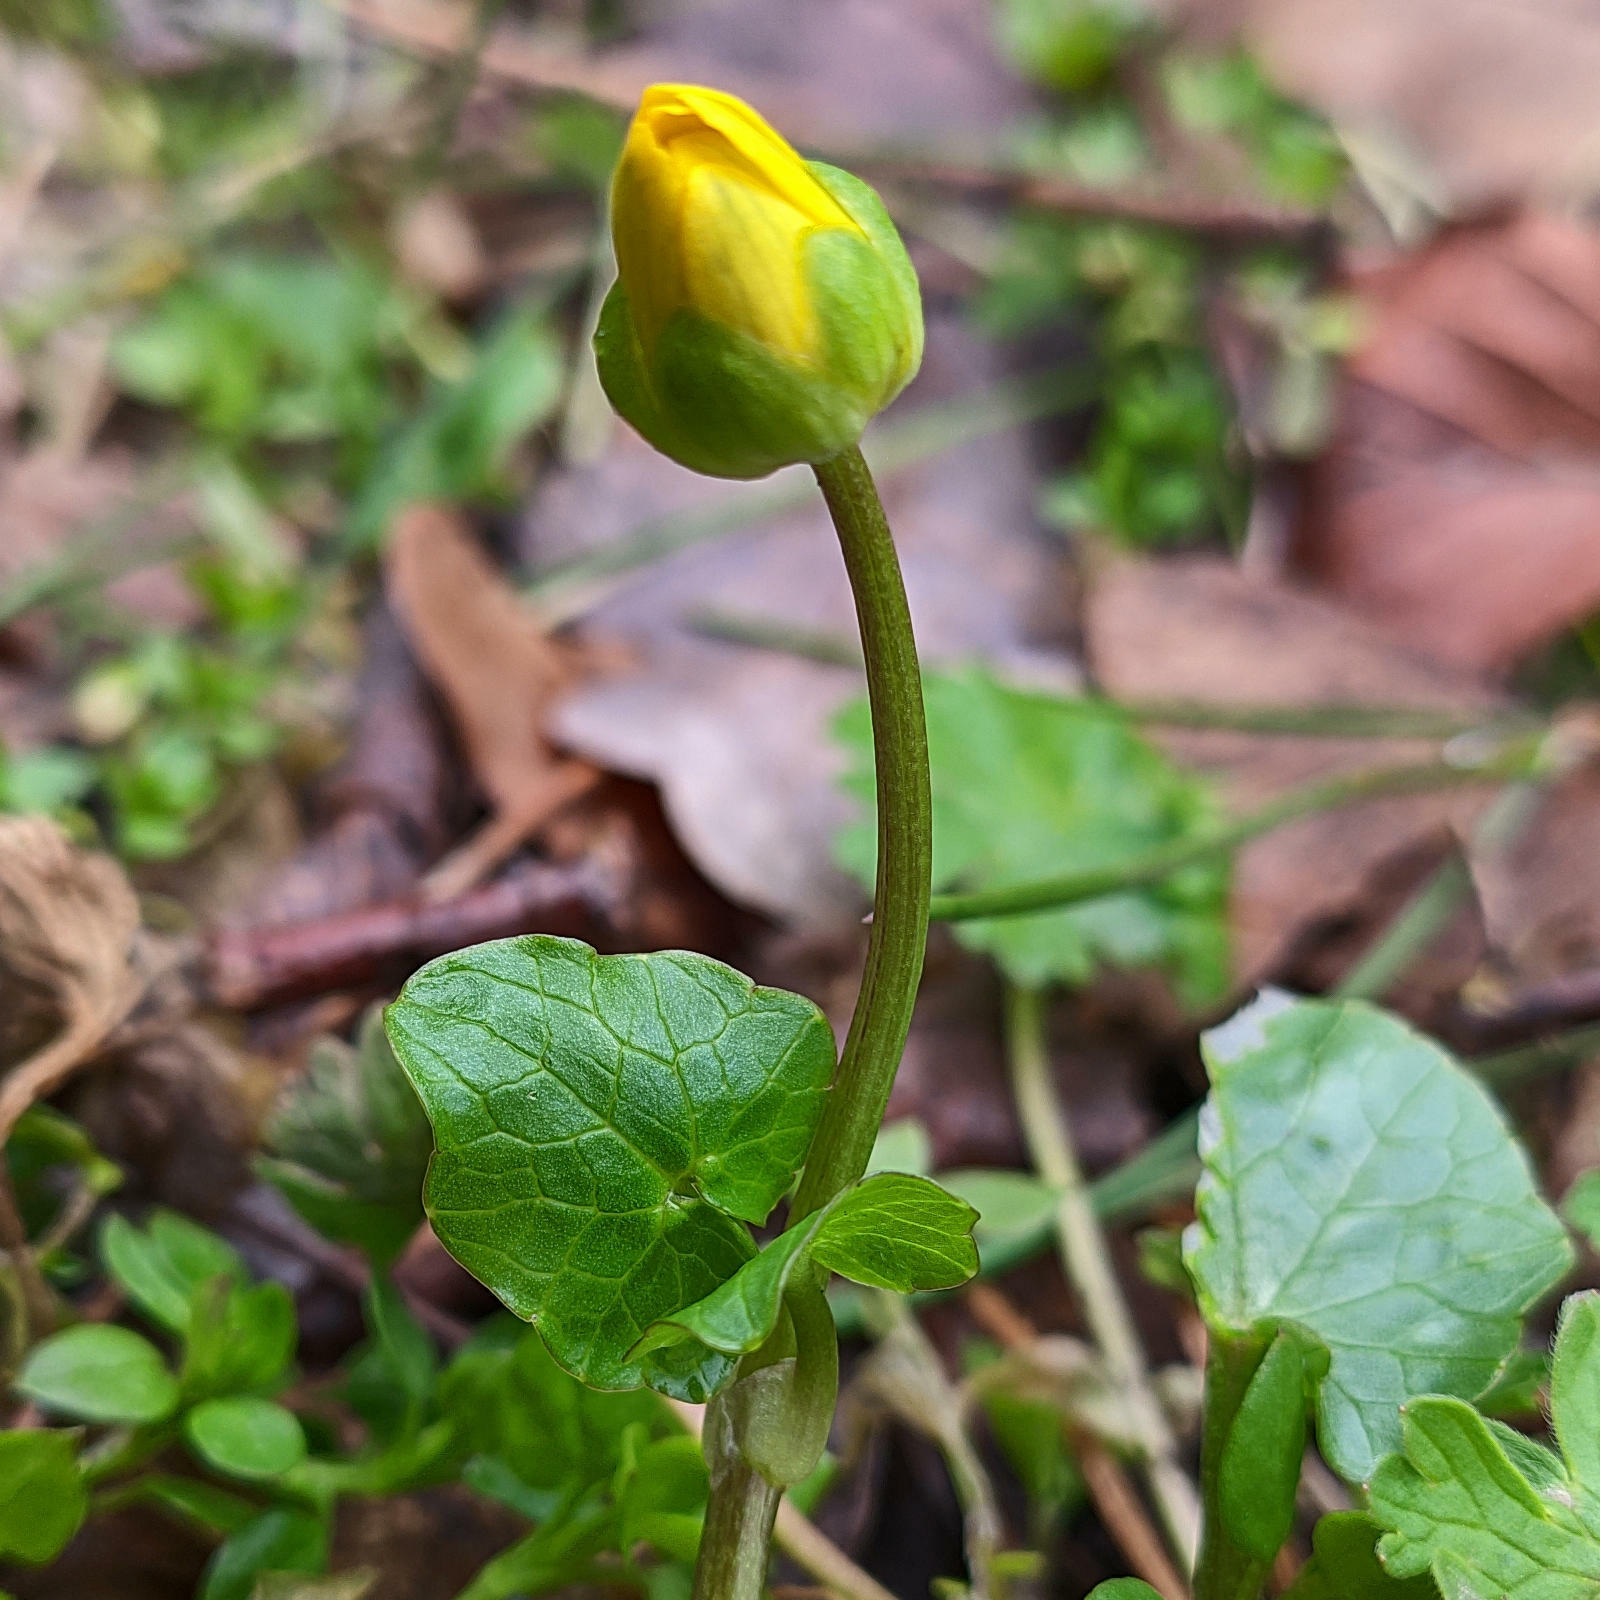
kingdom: Plantae
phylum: Tracheophyta
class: Magnoliopsida
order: Ranunculales
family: Ranunculaceae
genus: Ficaria
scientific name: Ficaria verna
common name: Lesser celandine
